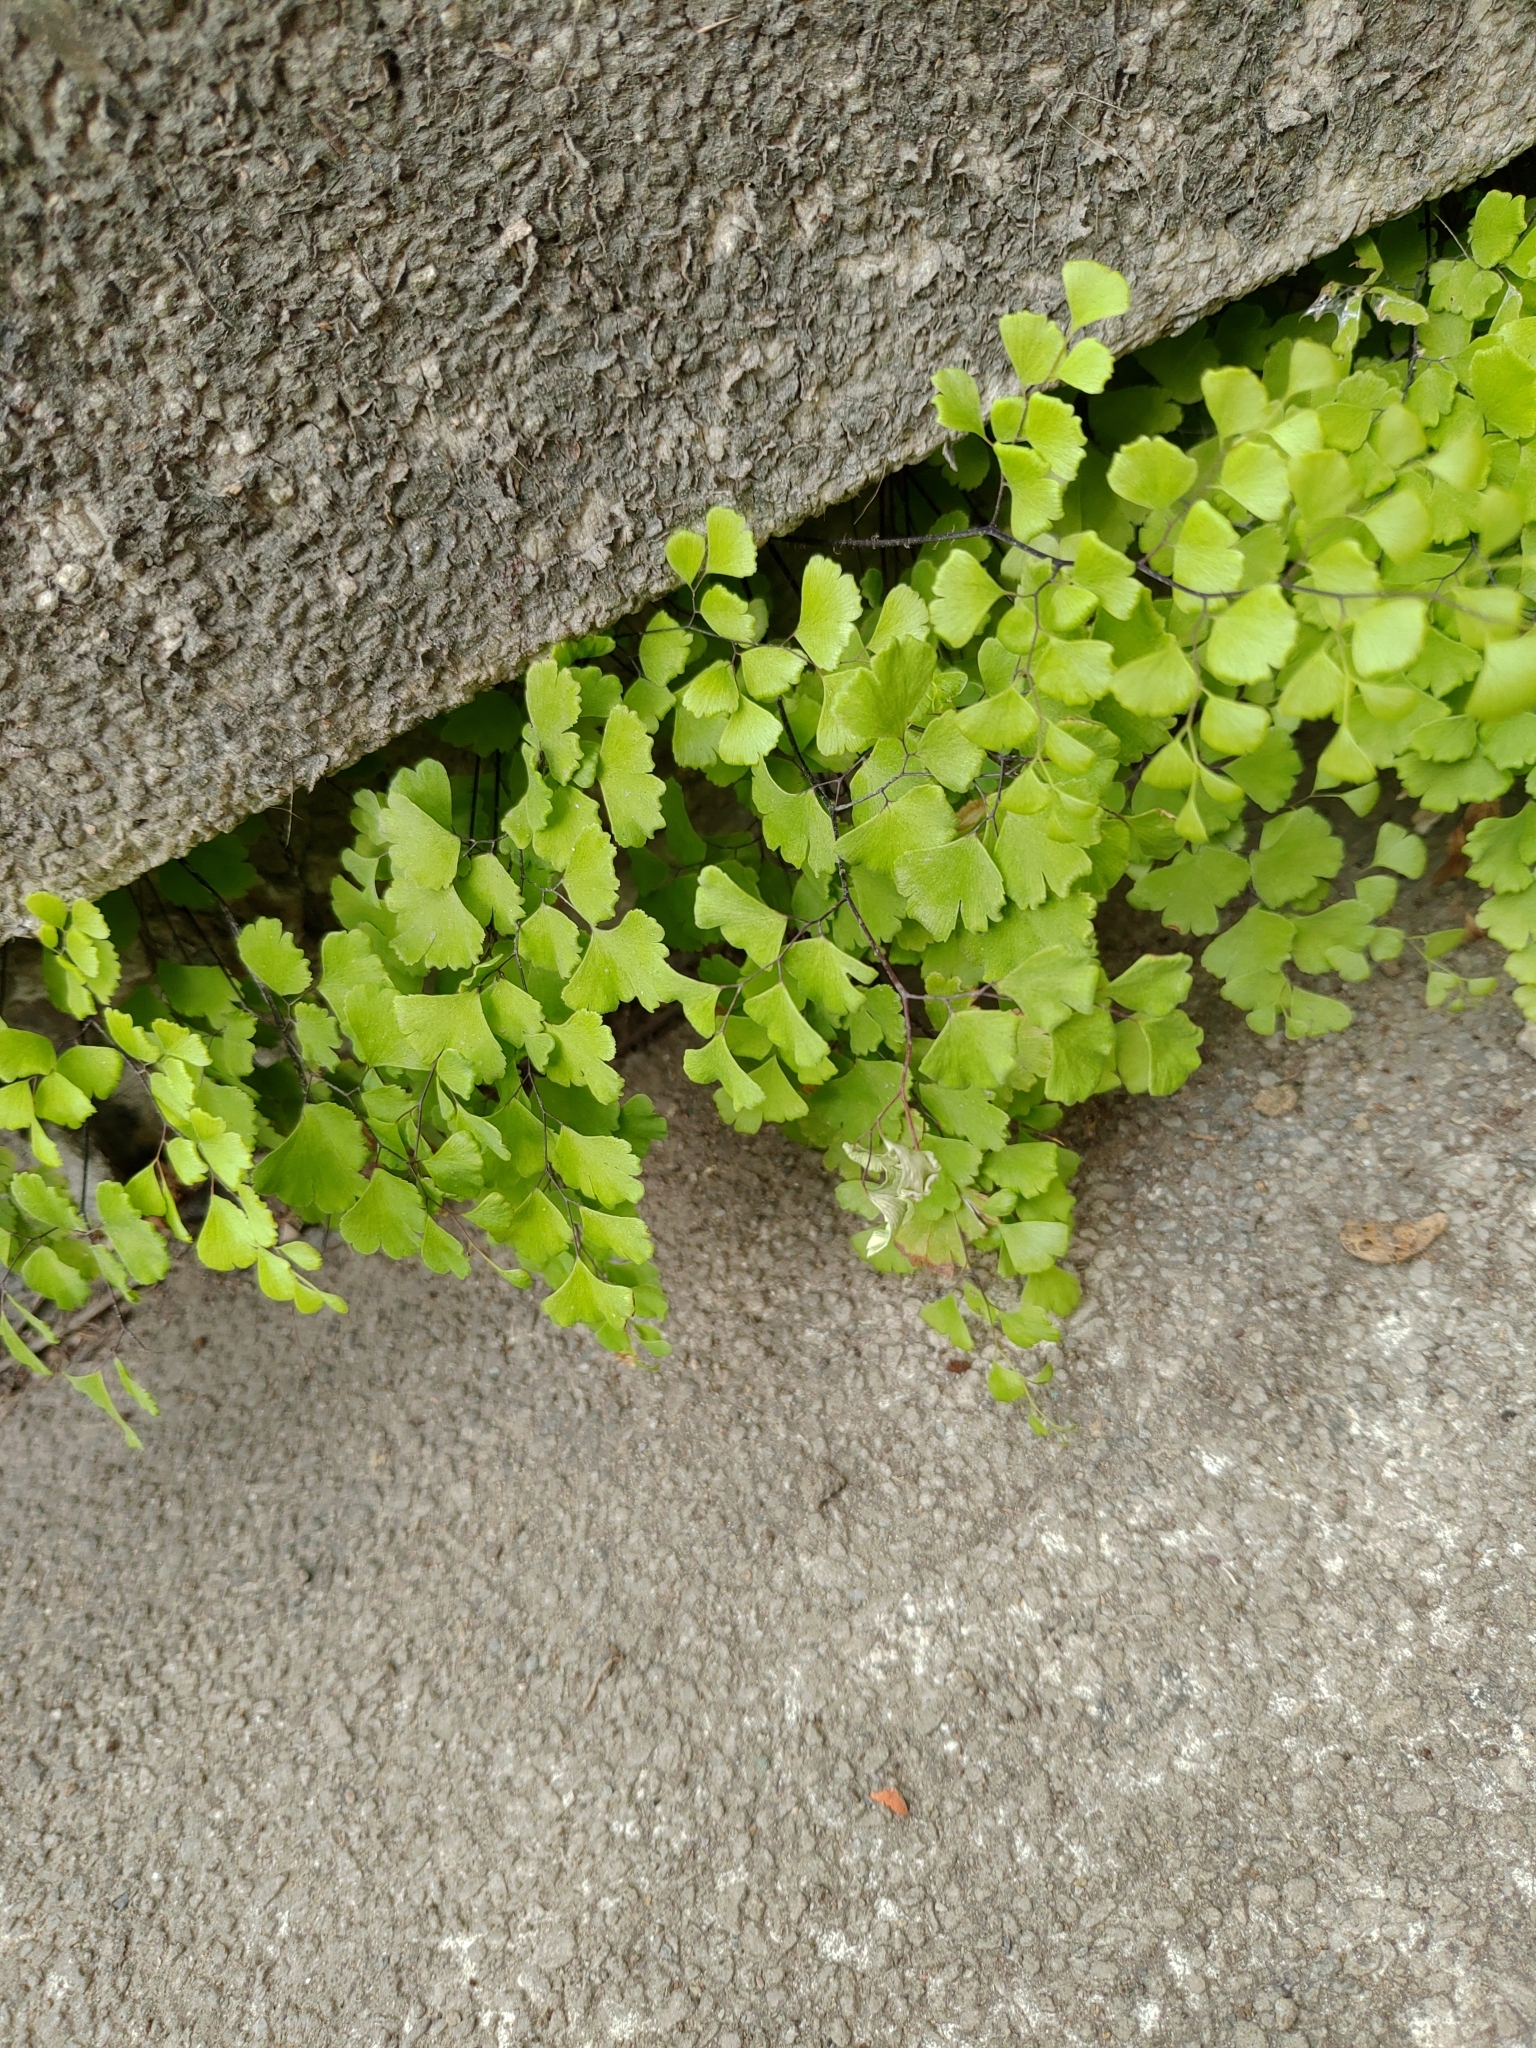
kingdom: Plantae
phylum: Tracheophyta
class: Polypodiopsida
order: Polypodiales
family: Pteridaceae
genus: Adiantum
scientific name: Adiantum capillus-veneris
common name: Maidenhair fern
